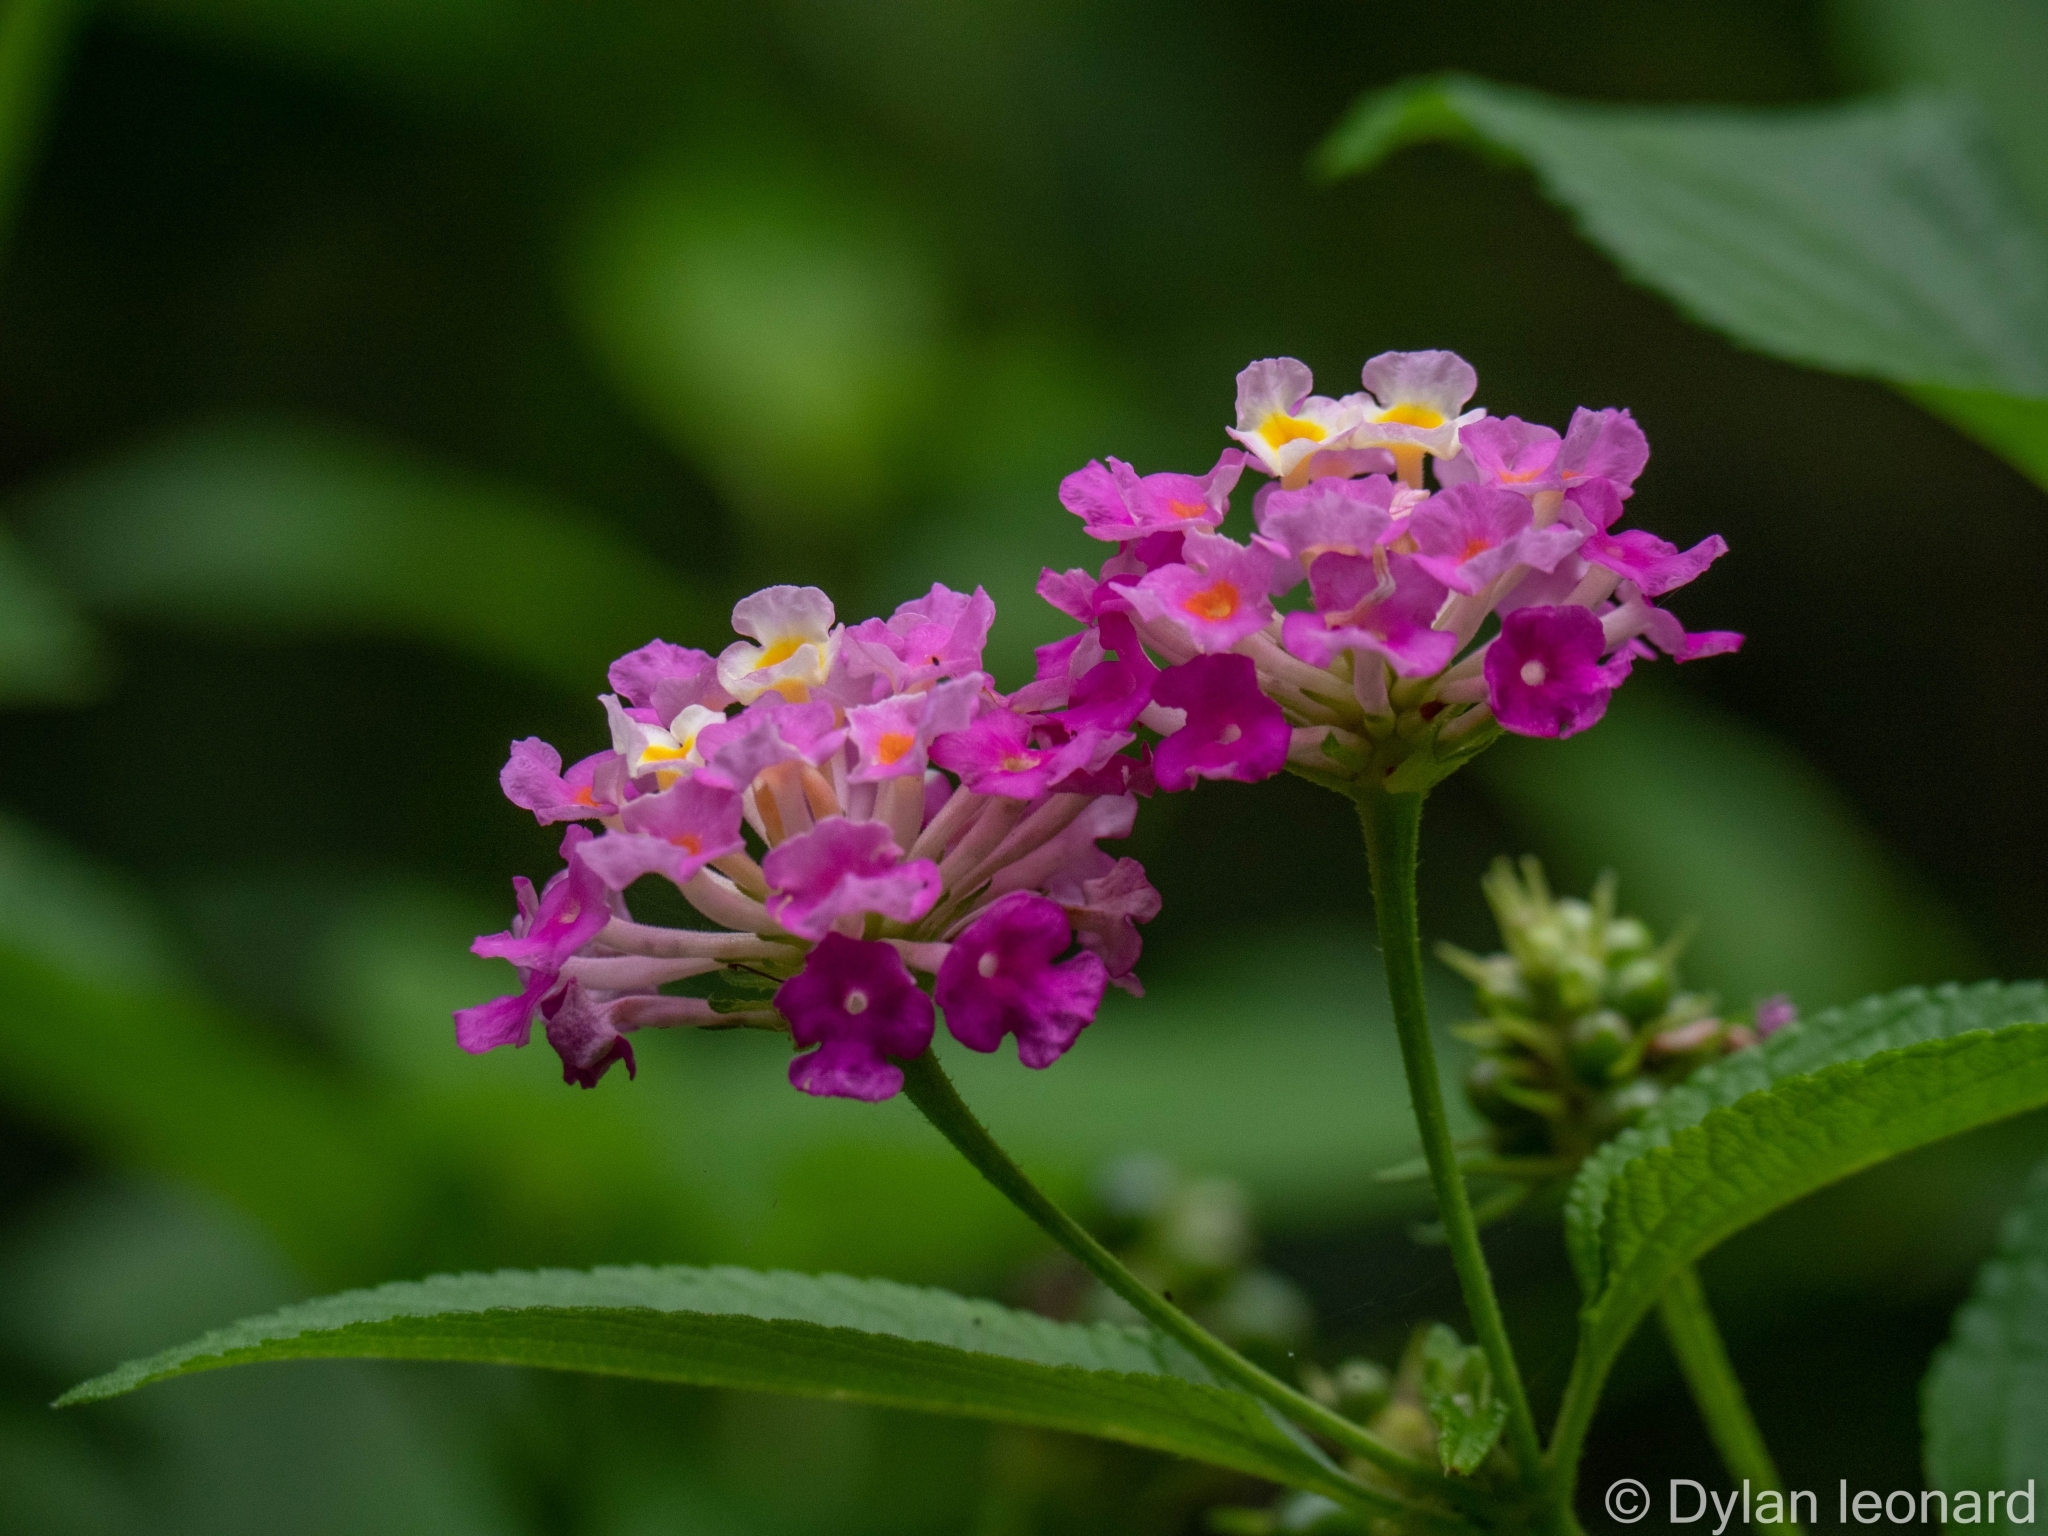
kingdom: Plantae
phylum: Tracheophyta
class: Magnoliopsida
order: Lamiales
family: Verbenaceae
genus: Lantana
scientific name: Lantana camara
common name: Lantana
